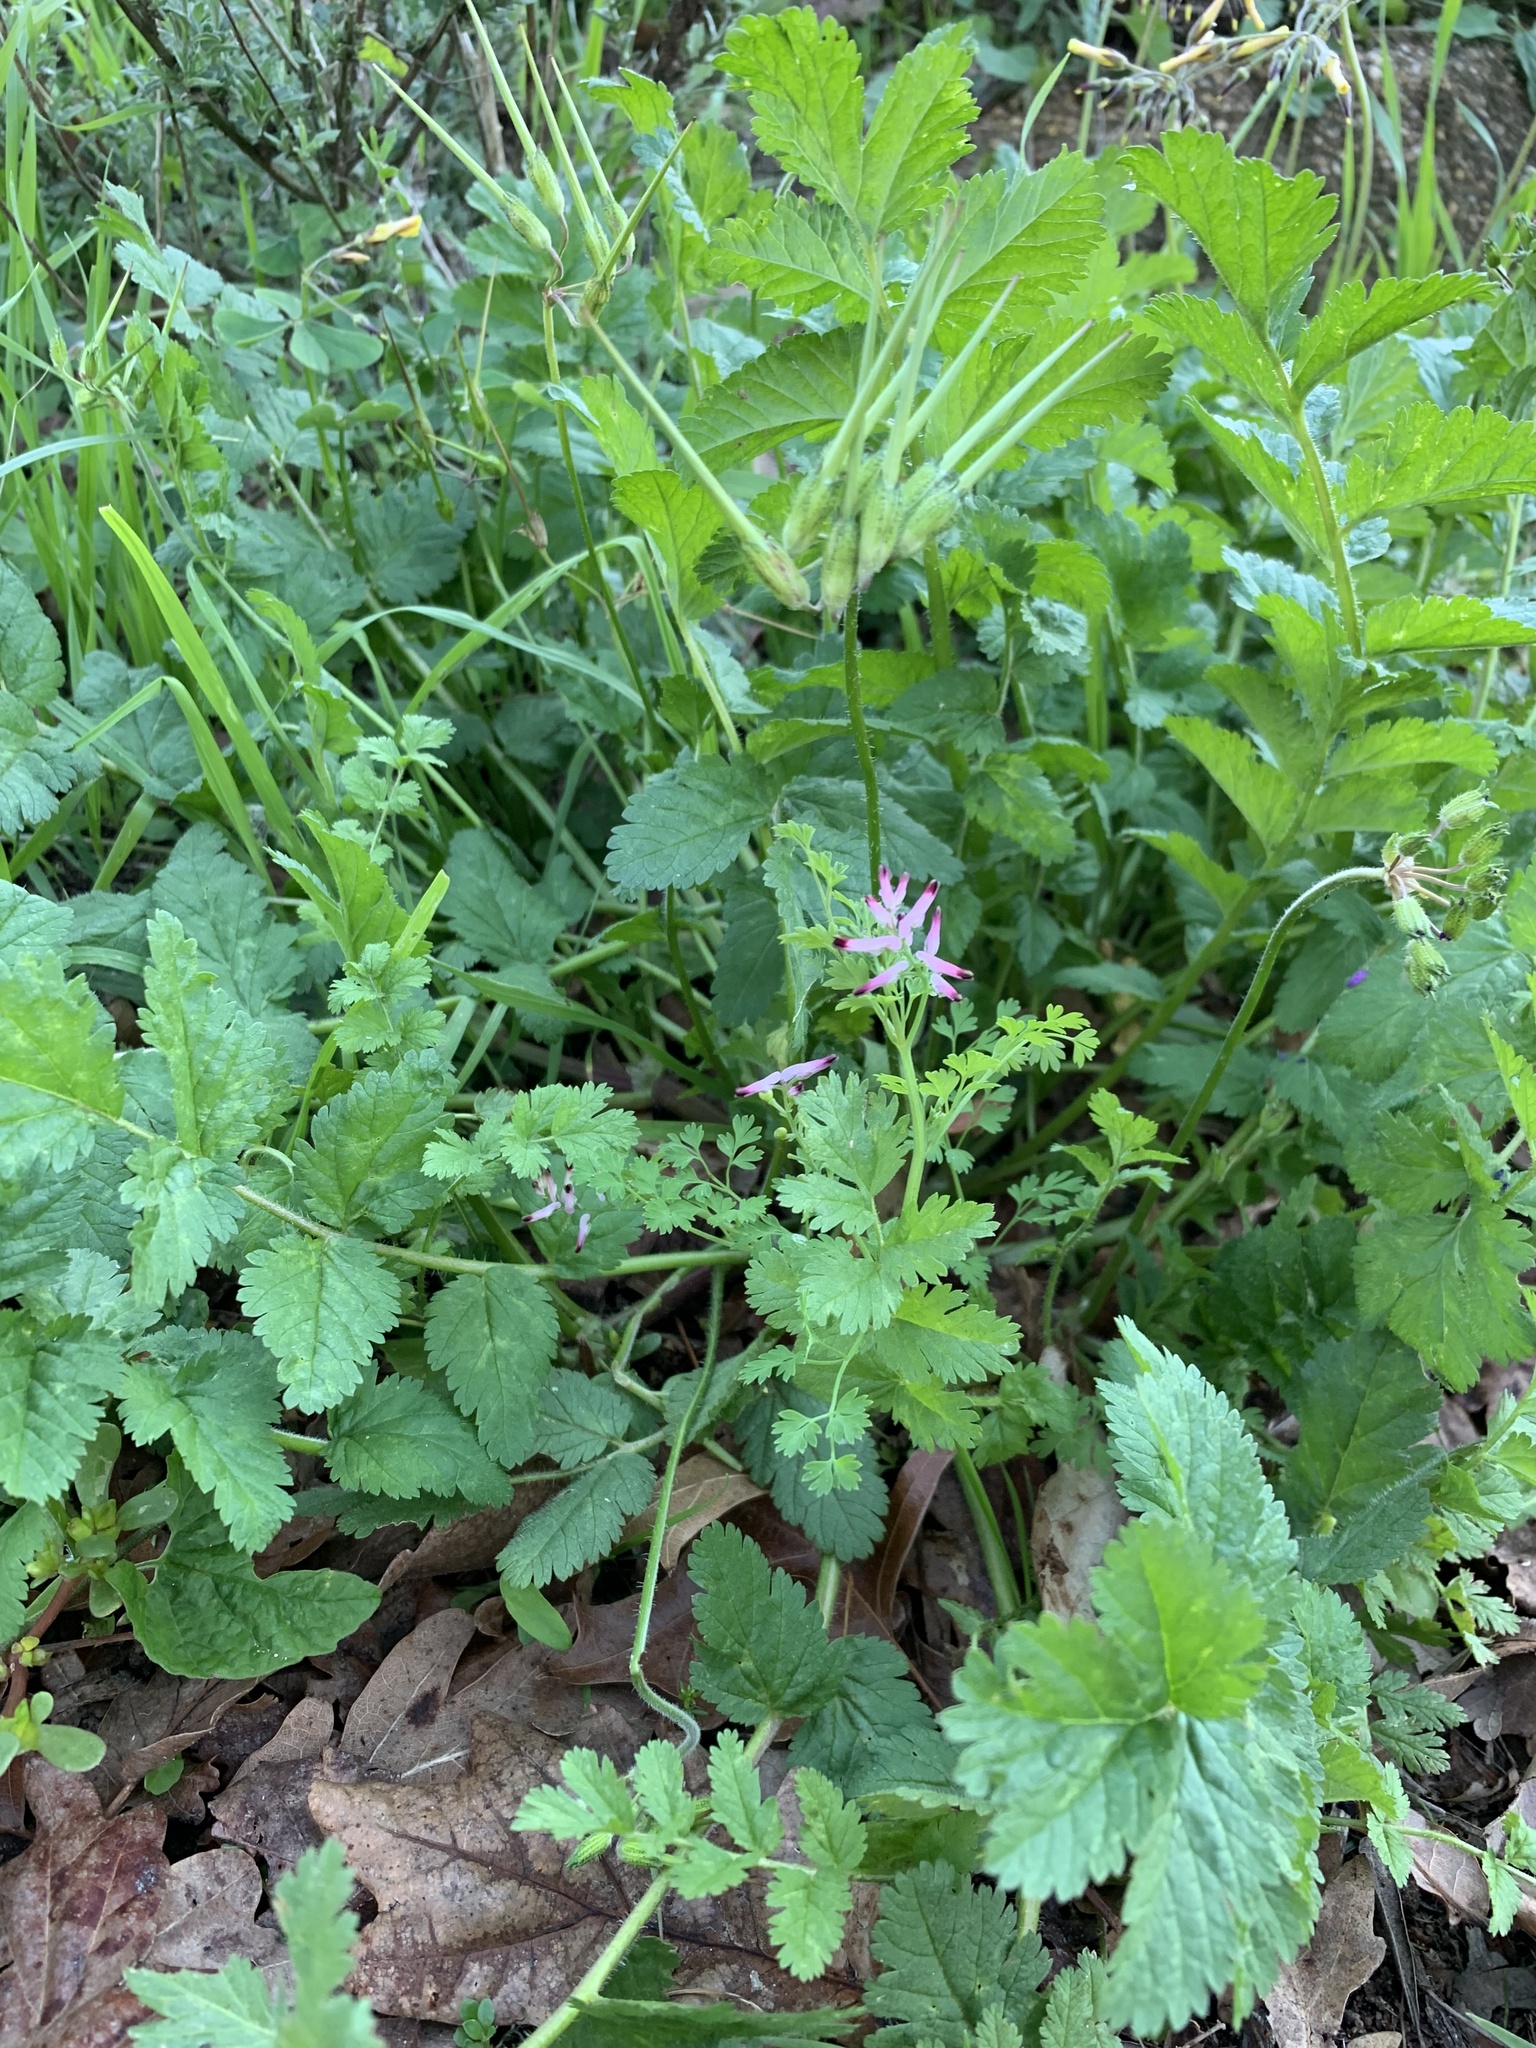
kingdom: Plantae
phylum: Tracheophyta
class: Magnoliopsida
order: Ranunculales
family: Papaveraceae
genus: Fumaria
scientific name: Fumaria muralis
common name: Common ramping-fumitory
